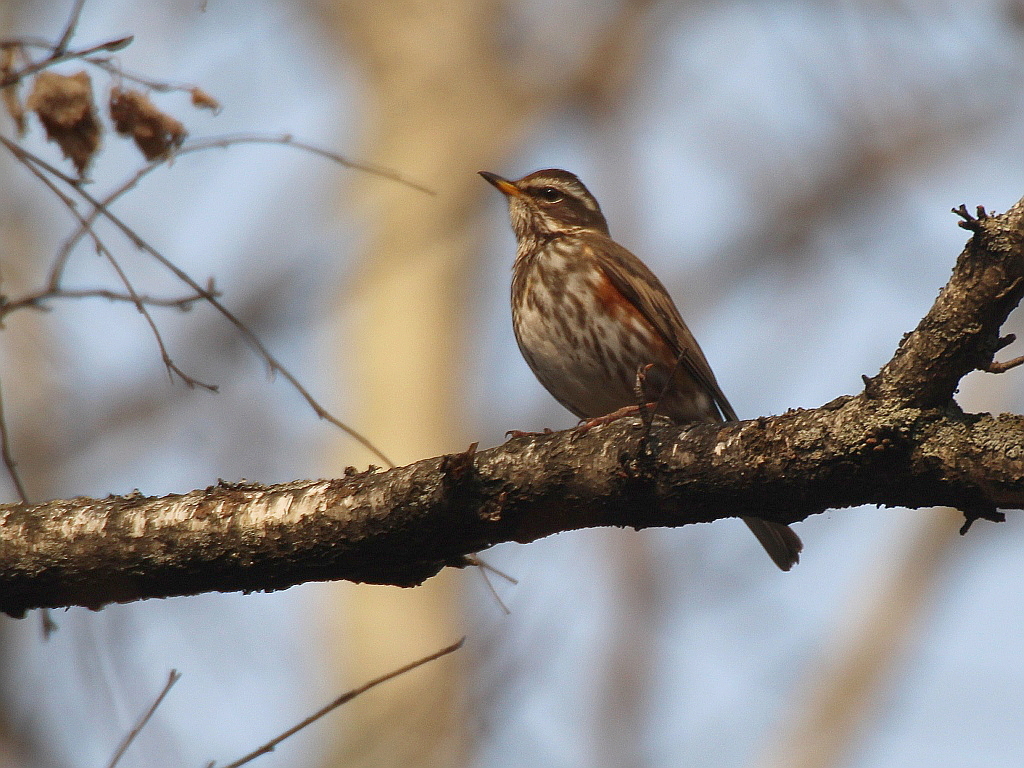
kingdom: Animalia
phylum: Chordata
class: Aves
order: Passeriformes
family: Turdidae
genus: Turdus
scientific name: Turdus iliacus
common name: Redwing
